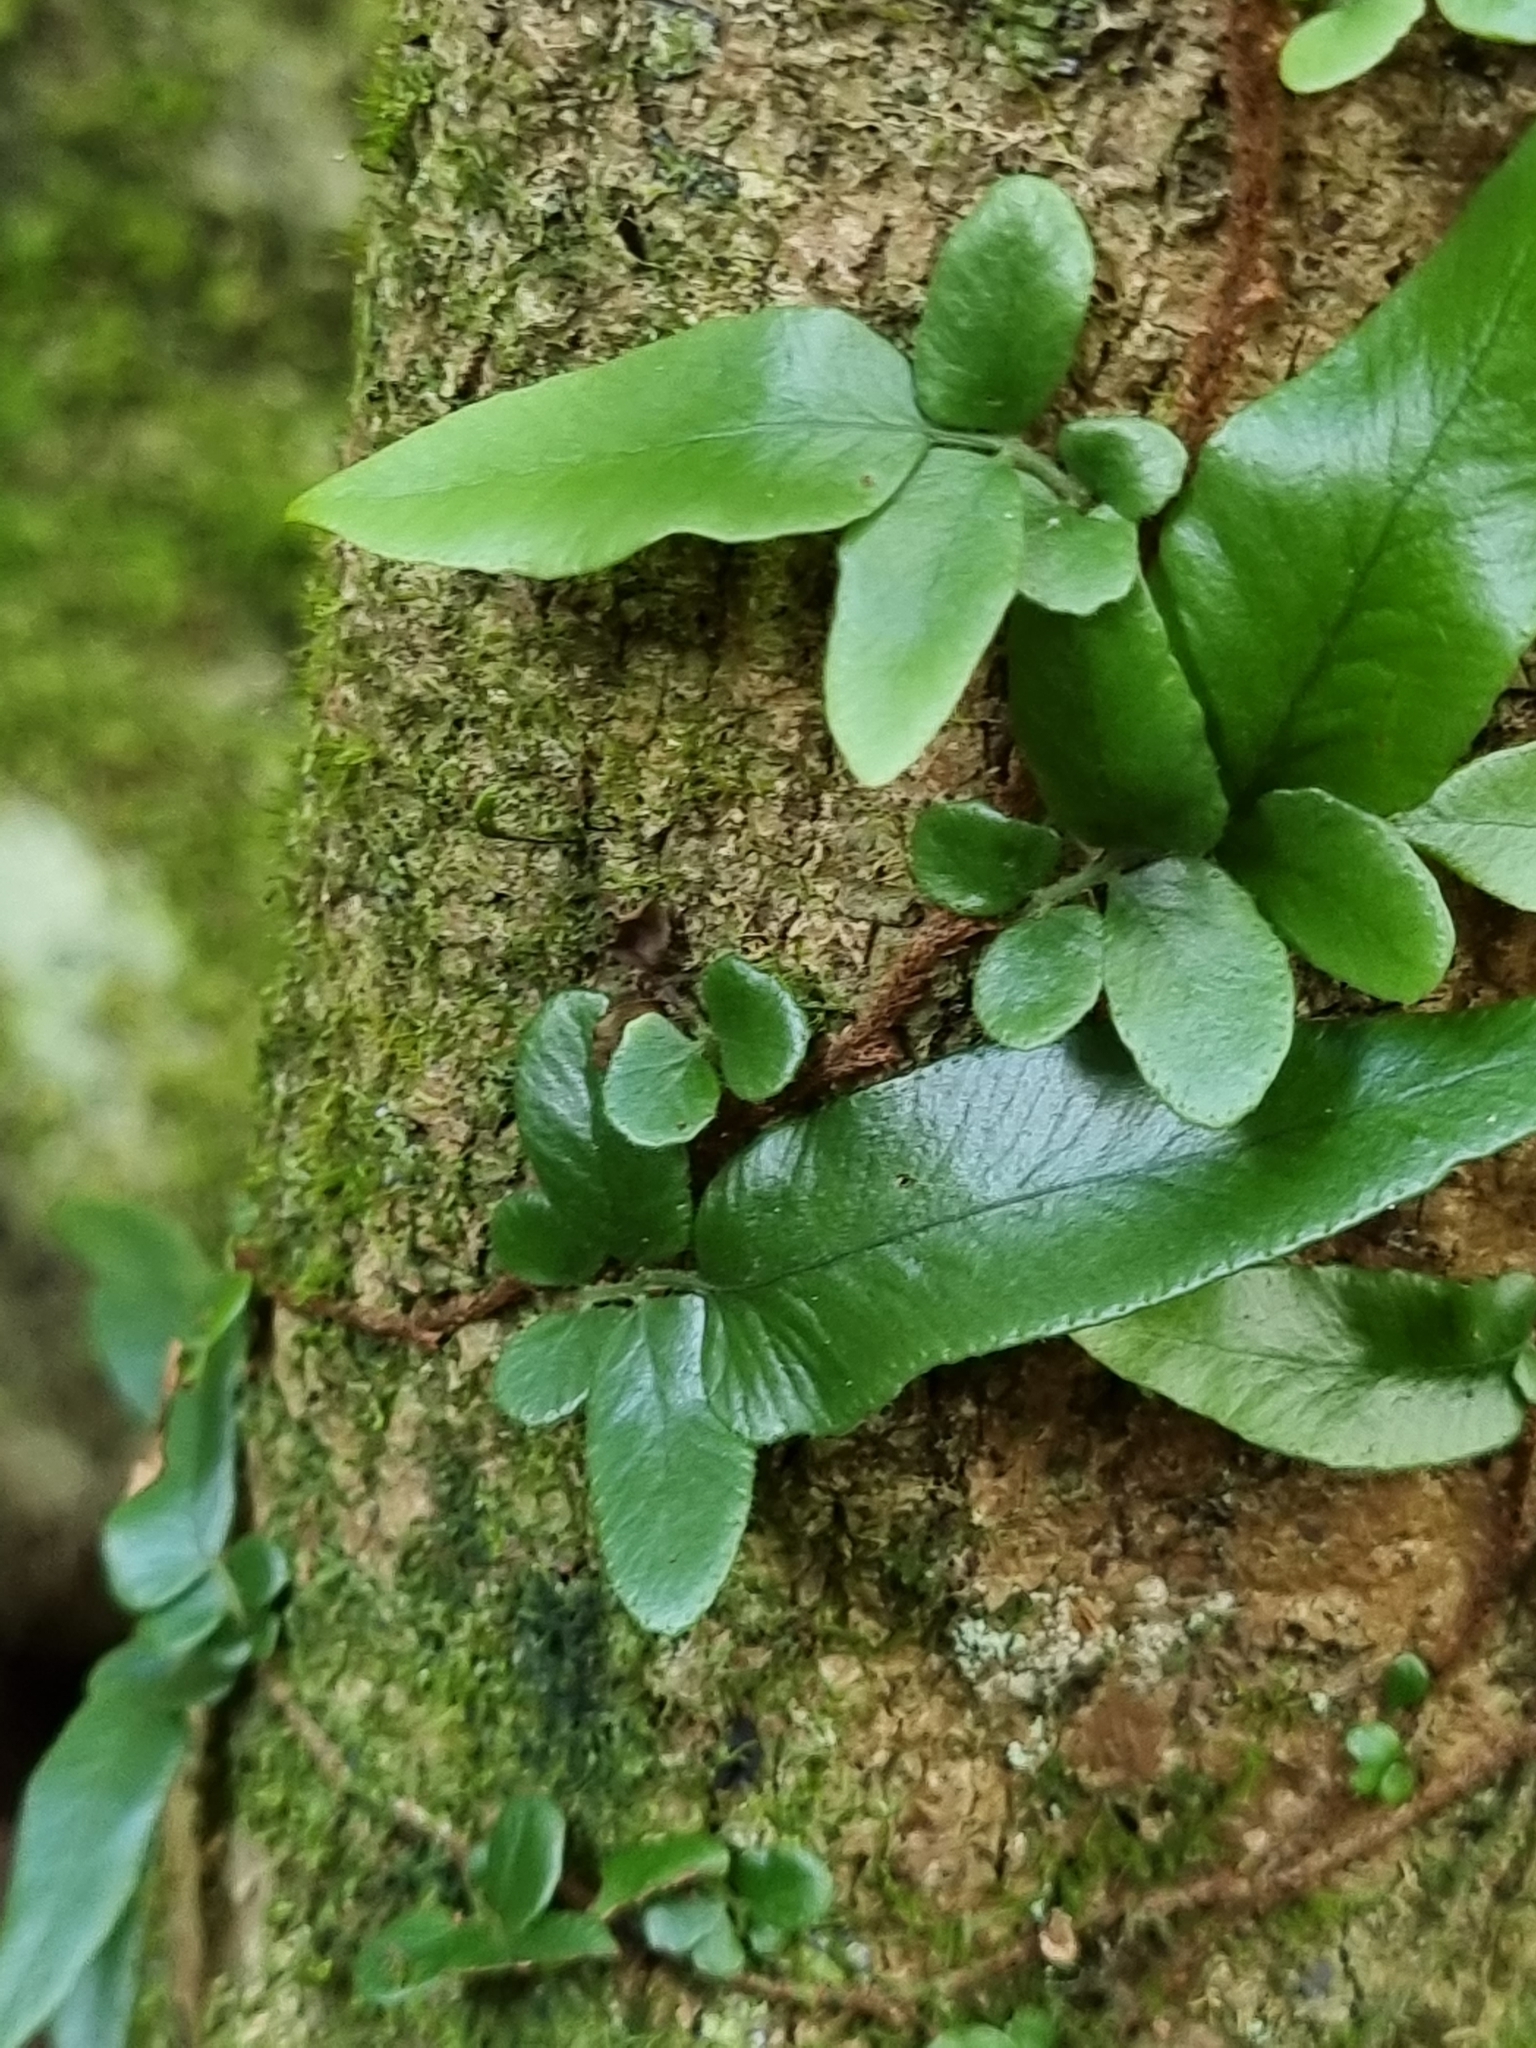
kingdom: Plantae
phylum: Tracheophyta
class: Polypodiopsida
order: Polypodiales
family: Tectariaceae
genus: Arthropteris
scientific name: Arthropteris tenella
